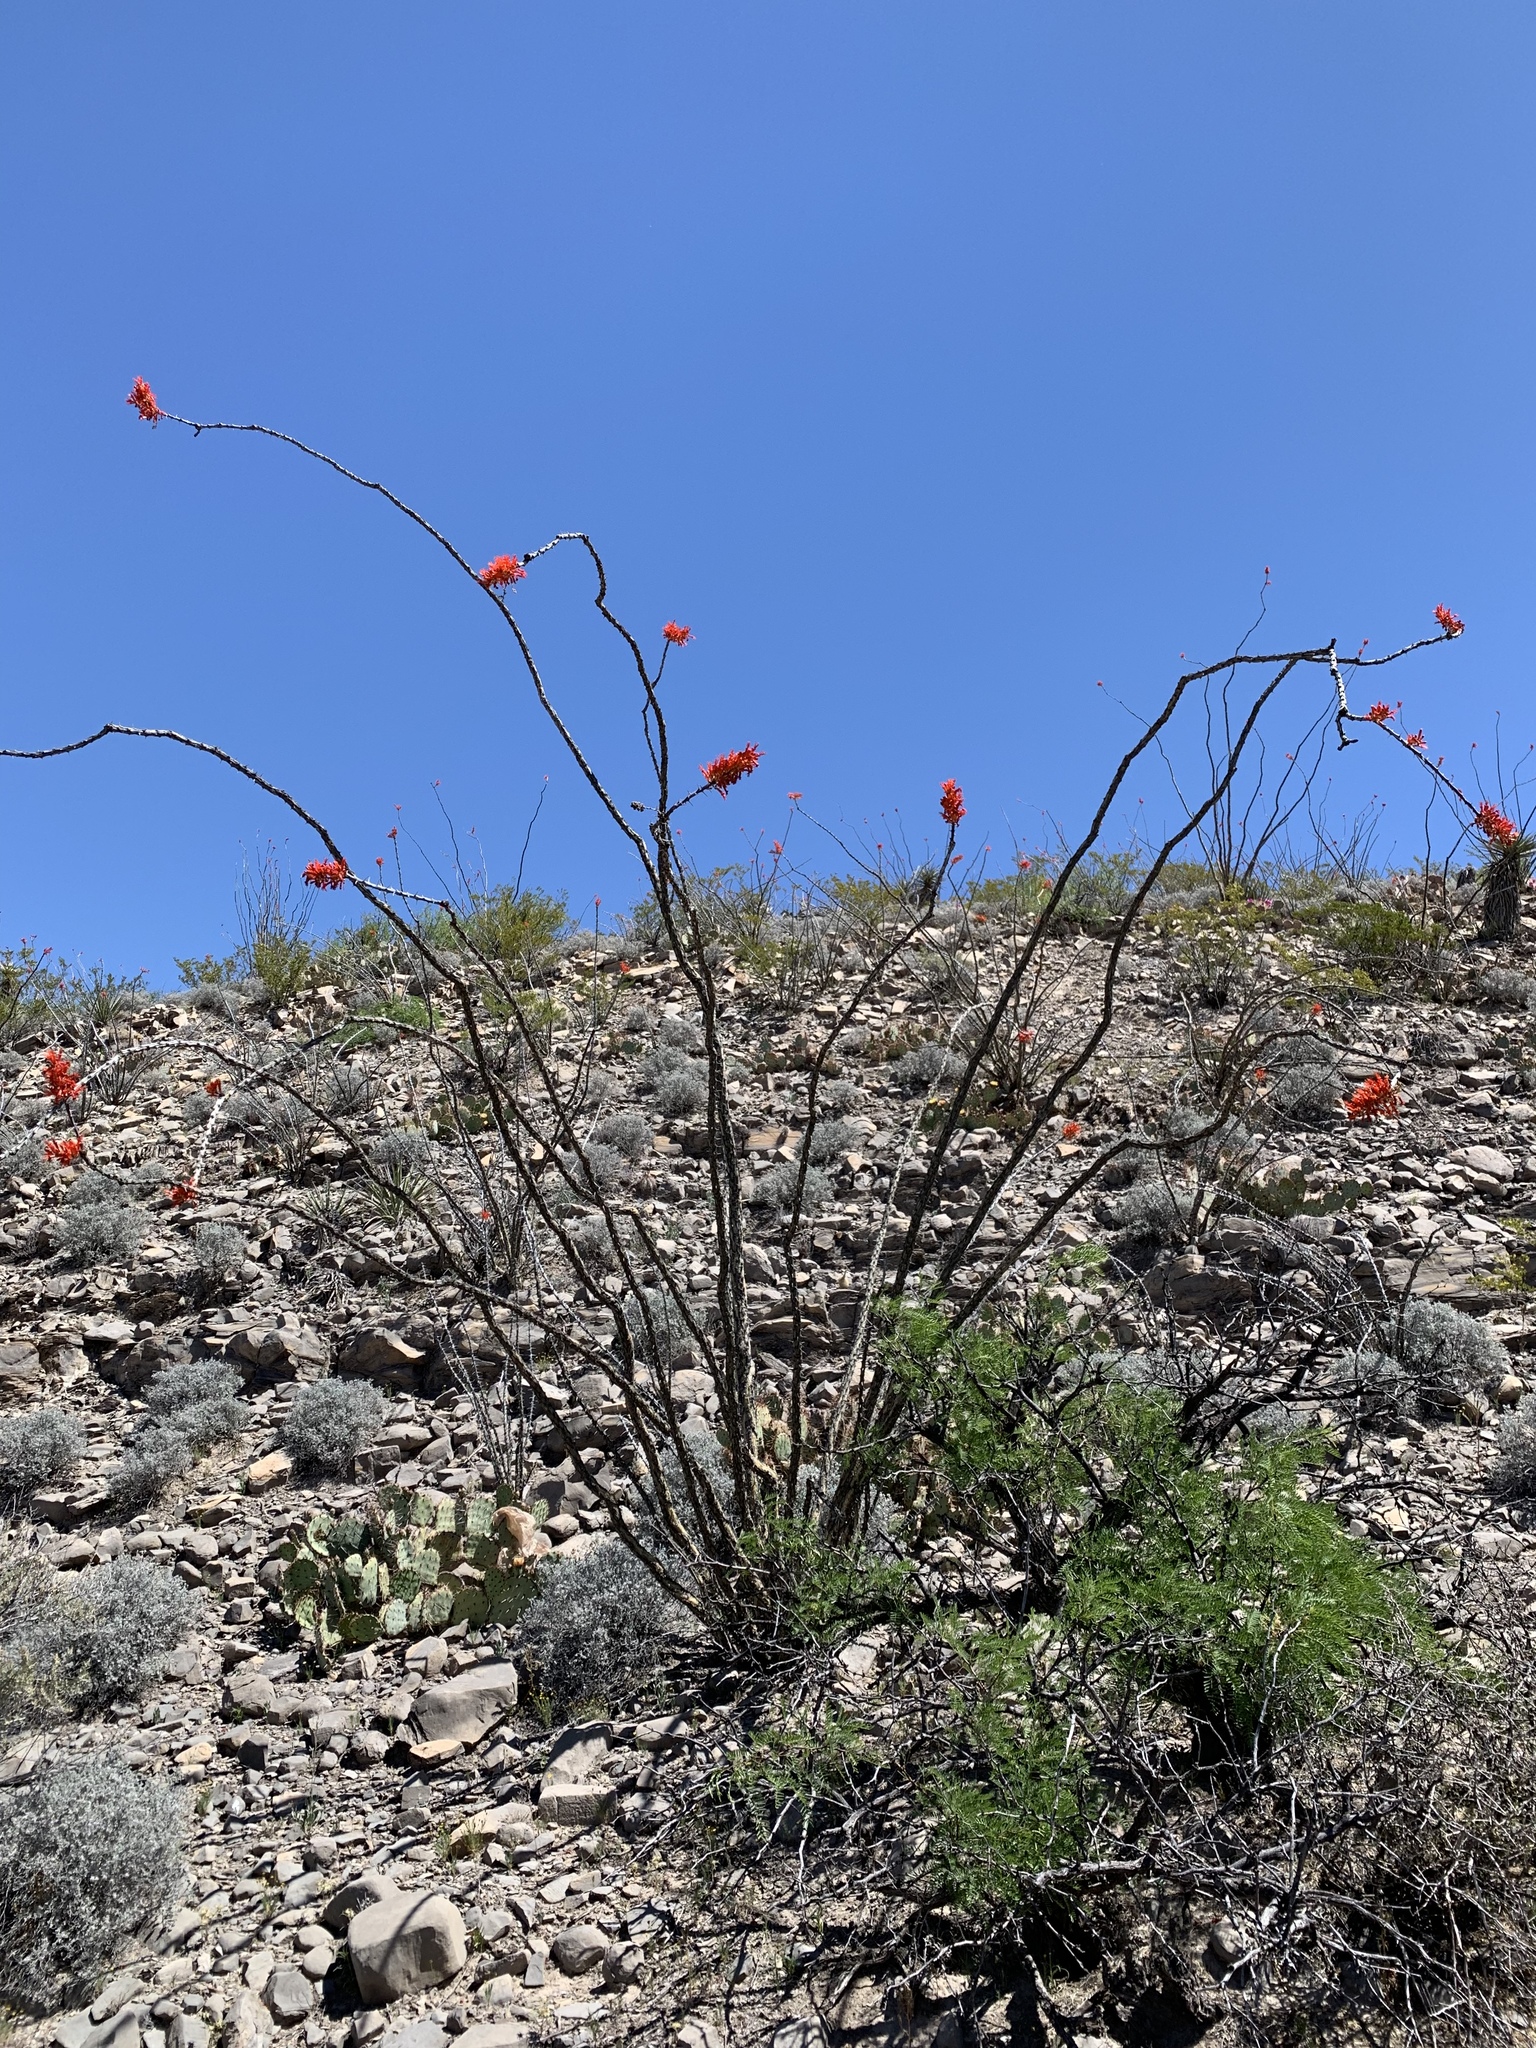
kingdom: Plantae
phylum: Tracheophyta
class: Magnoliopsida
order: Ericales
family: Fouquieriaceae
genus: Fouquieria
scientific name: Fouquieria splendens
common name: Vine-cactus
